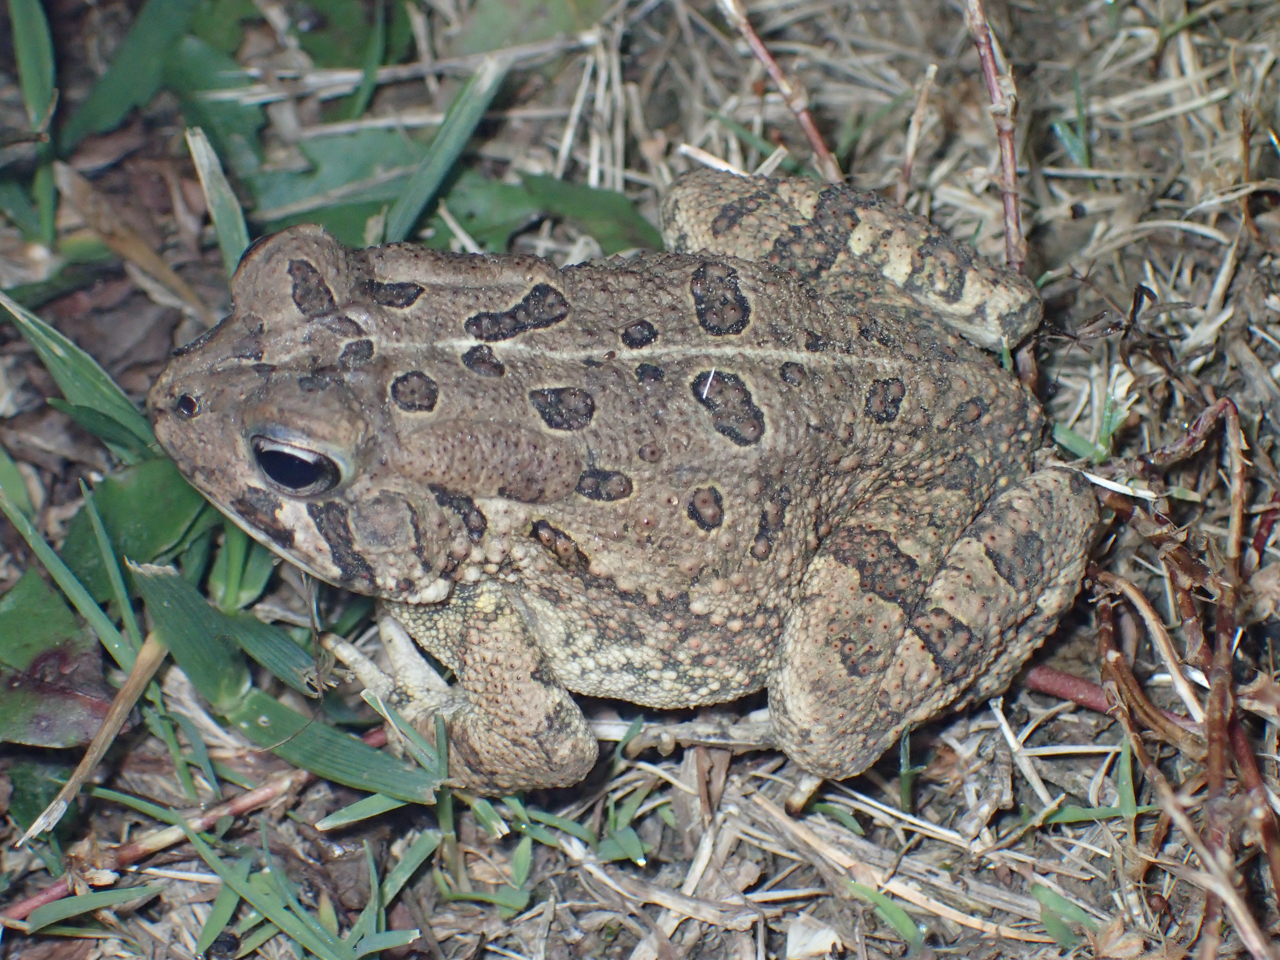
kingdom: Animalia
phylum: Chordata
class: Amphibia
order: Anura
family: Bufonidae
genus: Anaxyrus
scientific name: Anaxyrus fowleri
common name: Fowler's toad
